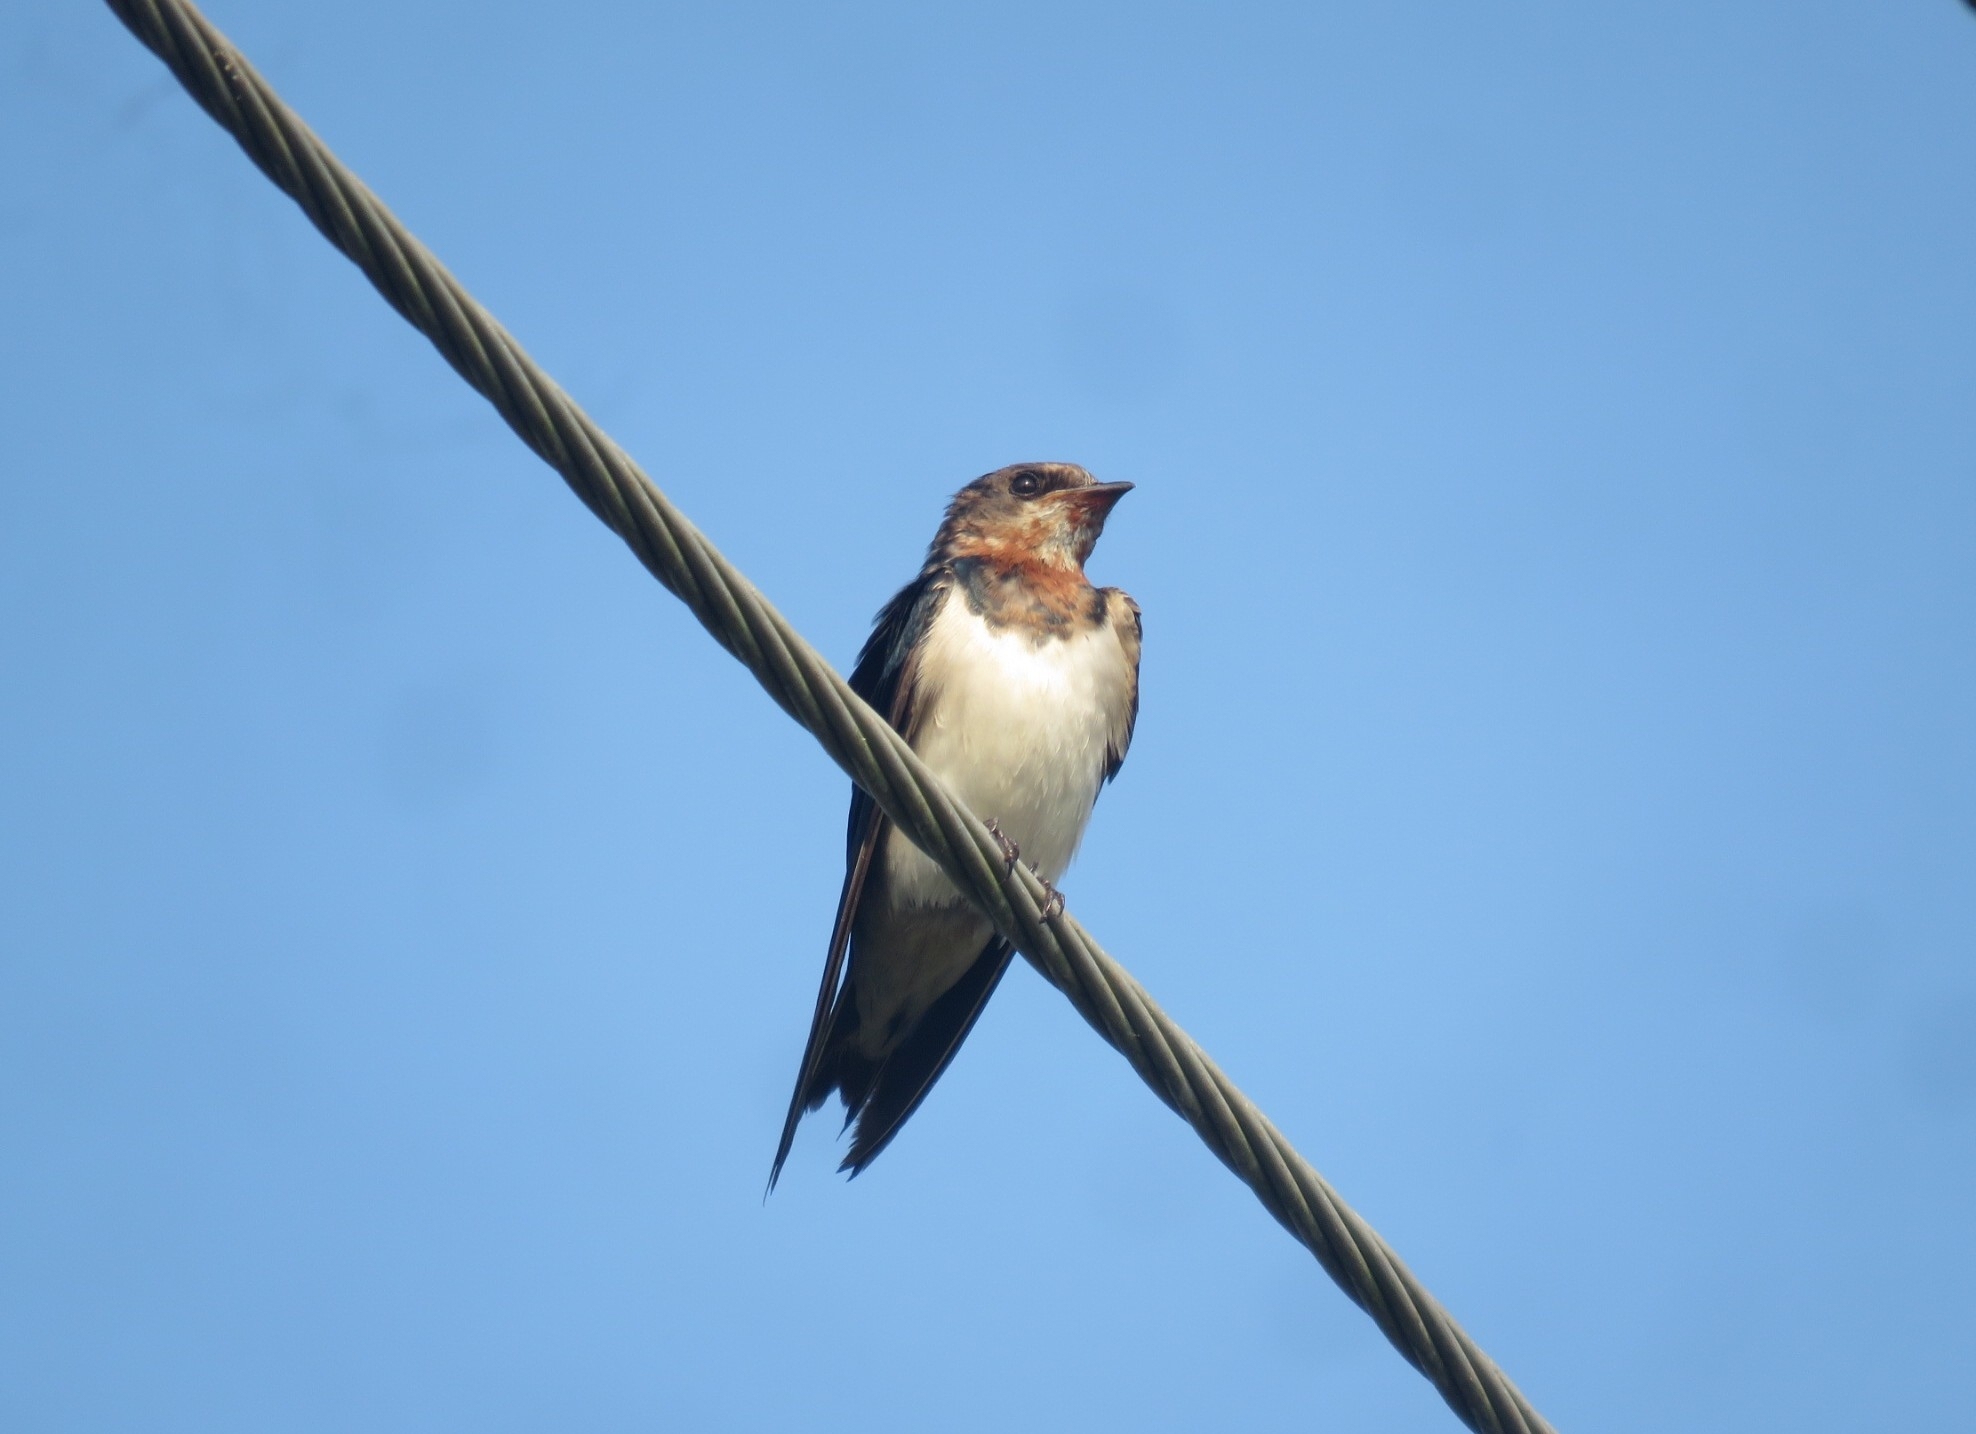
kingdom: Animalia
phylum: Chordata
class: Aves
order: Passeriformes
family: Hirundinidae
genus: Hirundo
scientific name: Hirundo rustica
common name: Barn swallow
